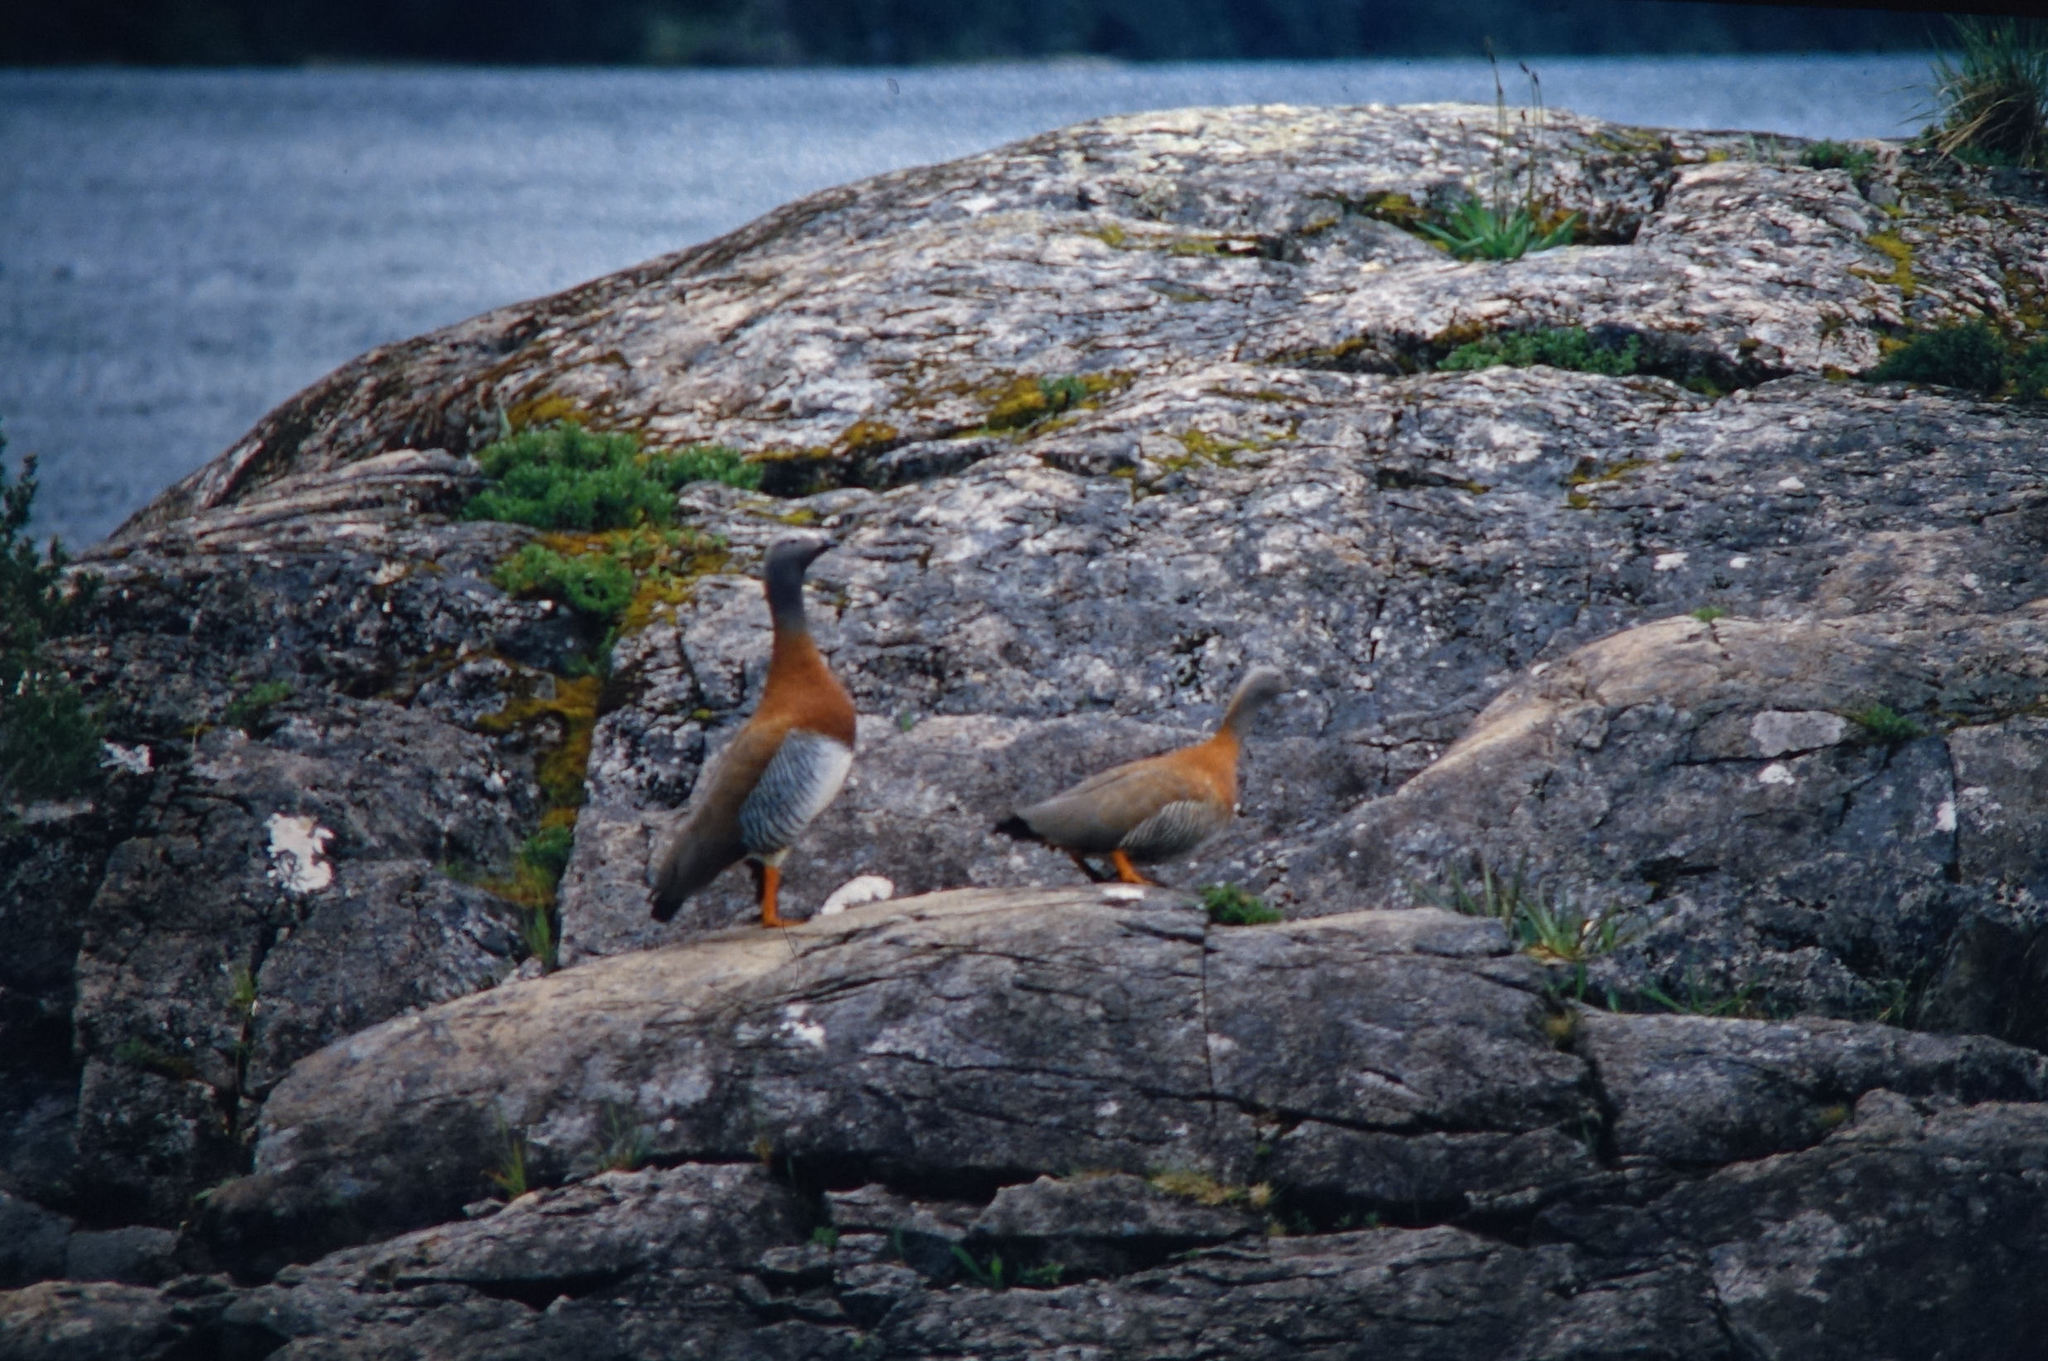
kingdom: Animalia
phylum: Chordata
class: Aves
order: Anseriformes
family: Anatidae
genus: Chloephaga
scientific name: Chloephaga poliocephala
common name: Ashy-headed goose
